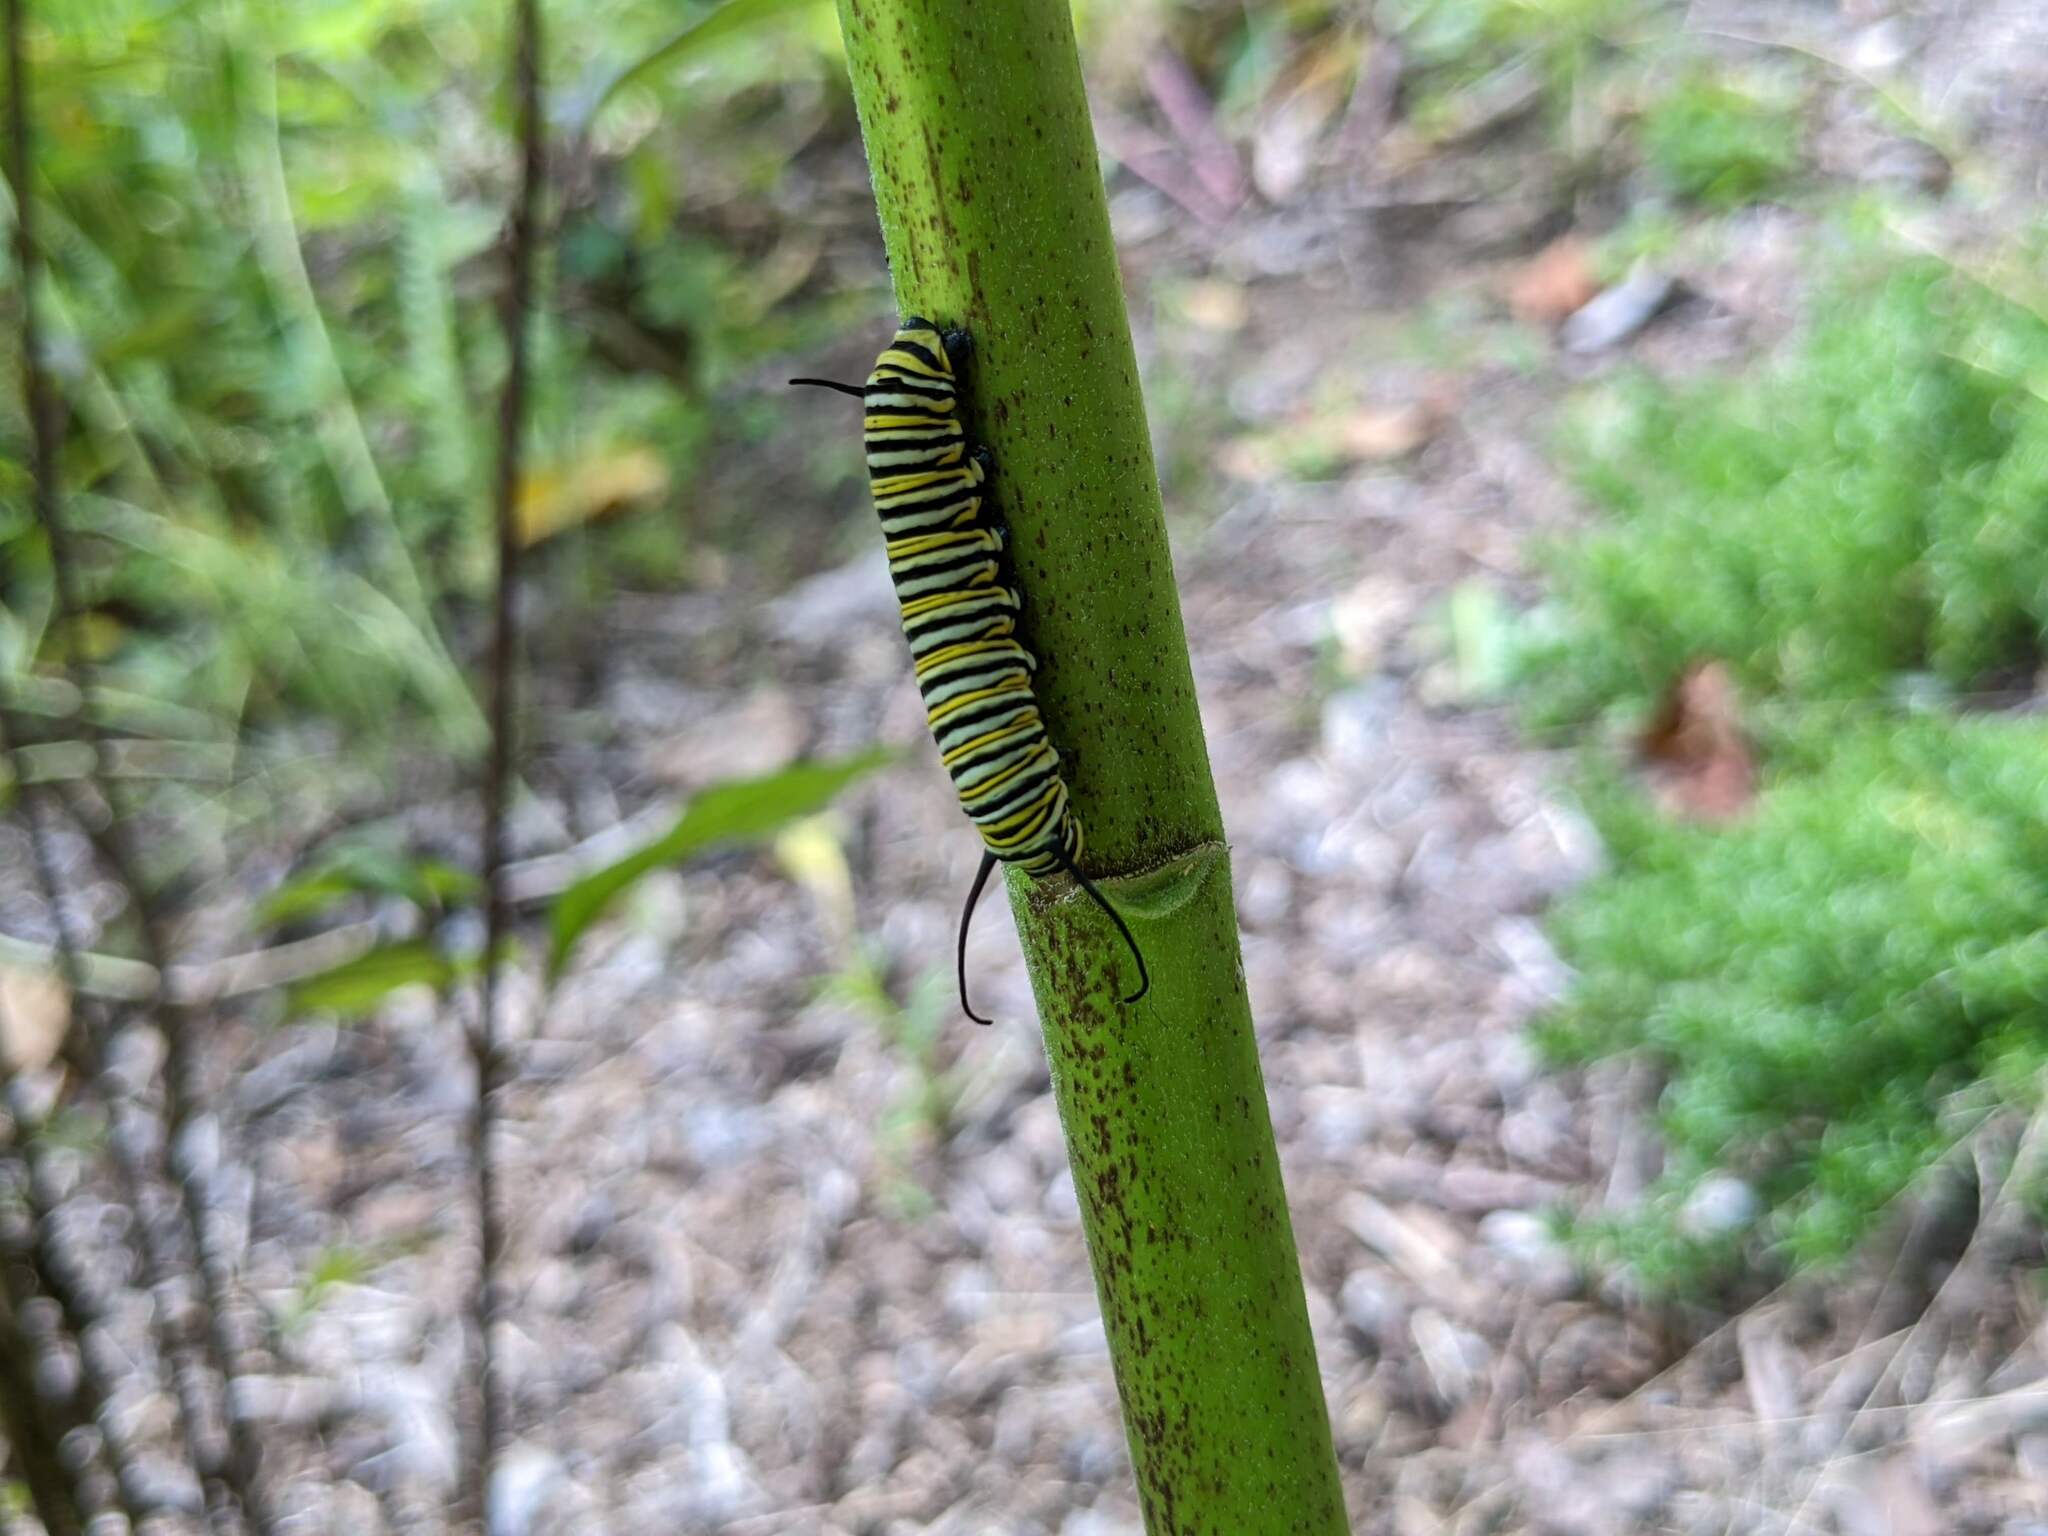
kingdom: Animalia
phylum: Arthropoda
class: Insecta
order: Lepidoptera
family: Nymphalidae
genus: Danaus
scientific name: Danaus plexippus
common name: Monarch
